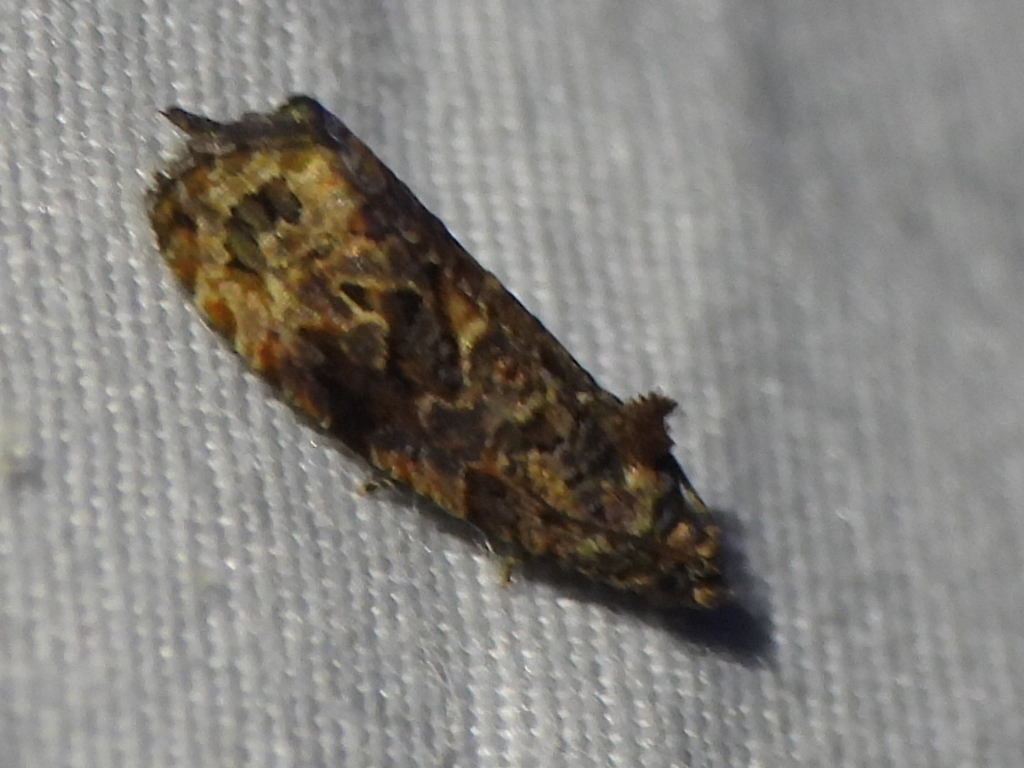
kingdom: Animalia
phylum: Arthropoda
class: Insecta
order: Lepidoptera
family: Tortricidae
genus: Endothenia
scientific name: Endothenia hebesana
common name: Verbena bud moth
